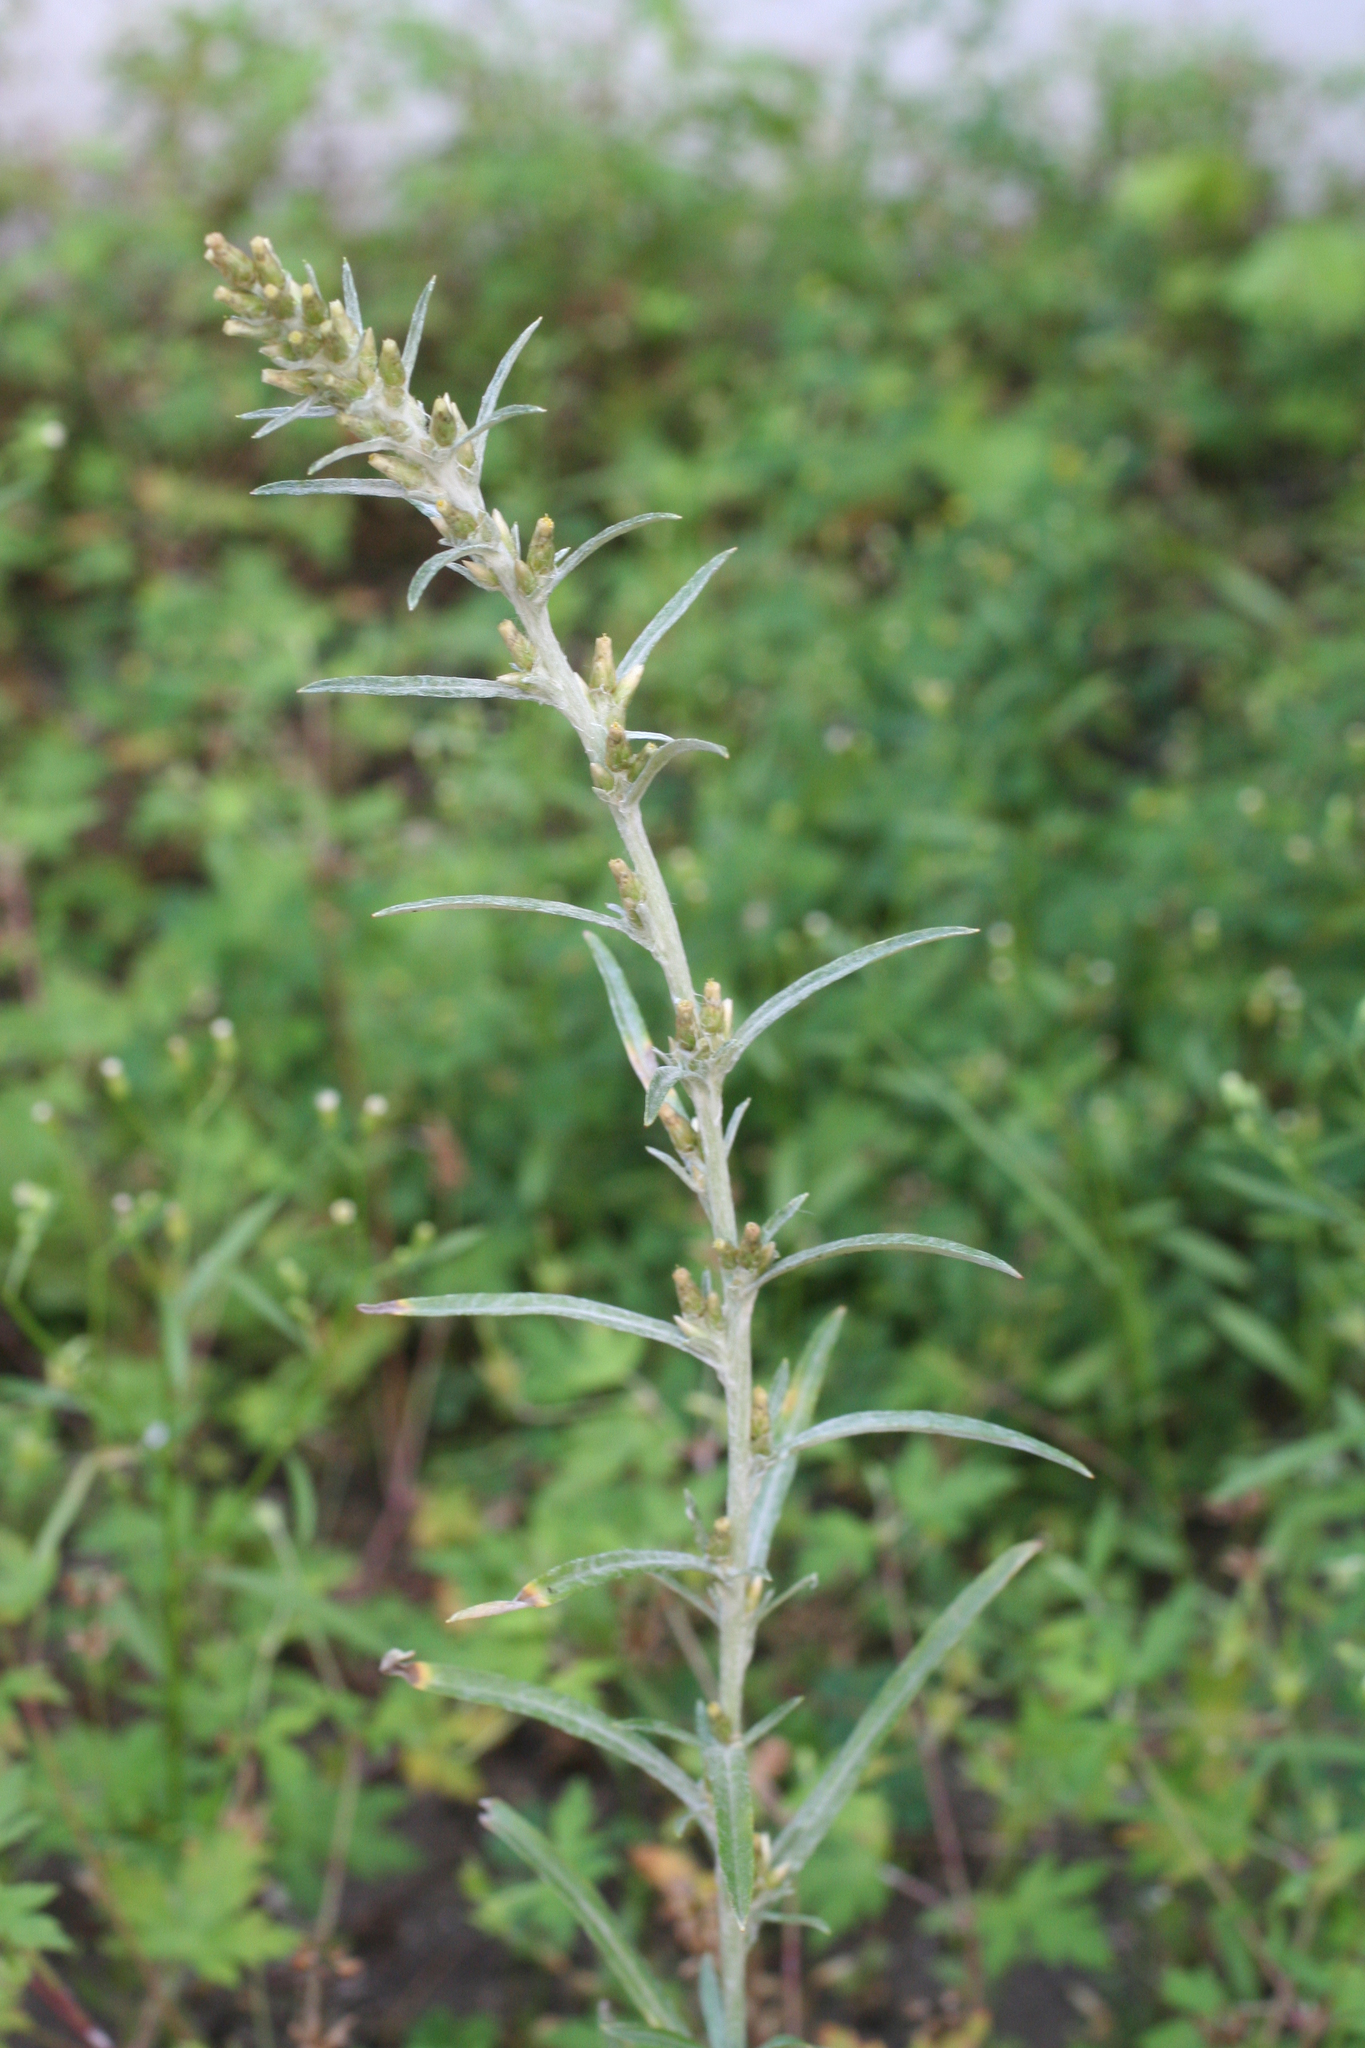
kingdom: Plantae
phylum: Tracheophyta
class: Magnoliopsida
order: Asterales
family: Asteraceae
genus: Omalotheca
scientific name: Omalotheca sylvatica
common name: Heath cudweed
